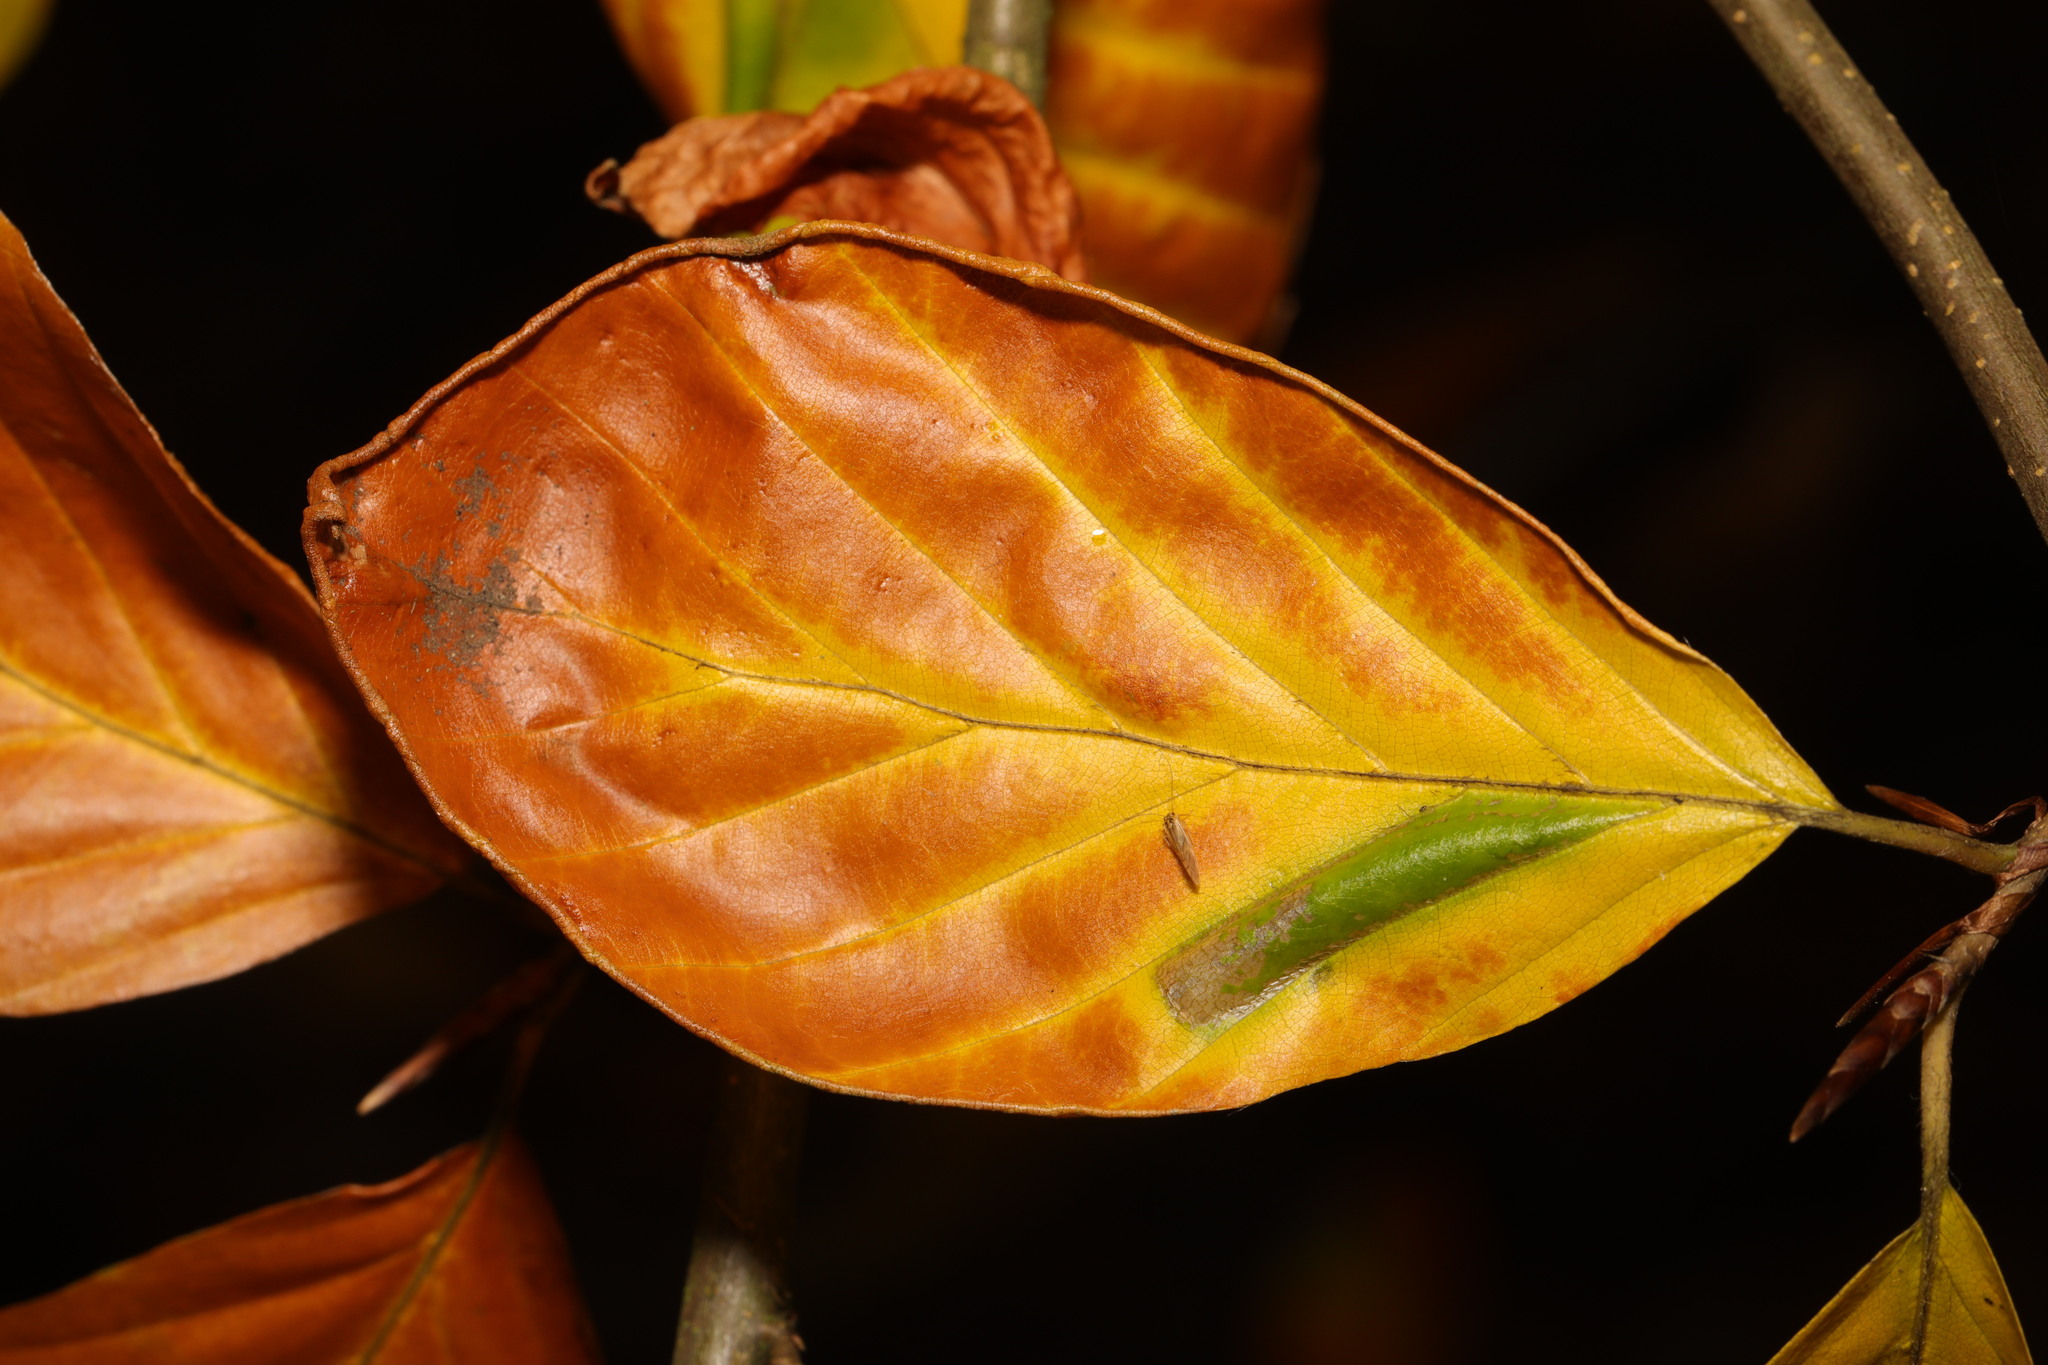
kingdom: Plantae
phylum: Tracheophyta
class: Magnoliopsida
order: Fagales
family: Fagaceae
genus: Fagus
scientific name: Fagus sylvatica
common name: Beech
